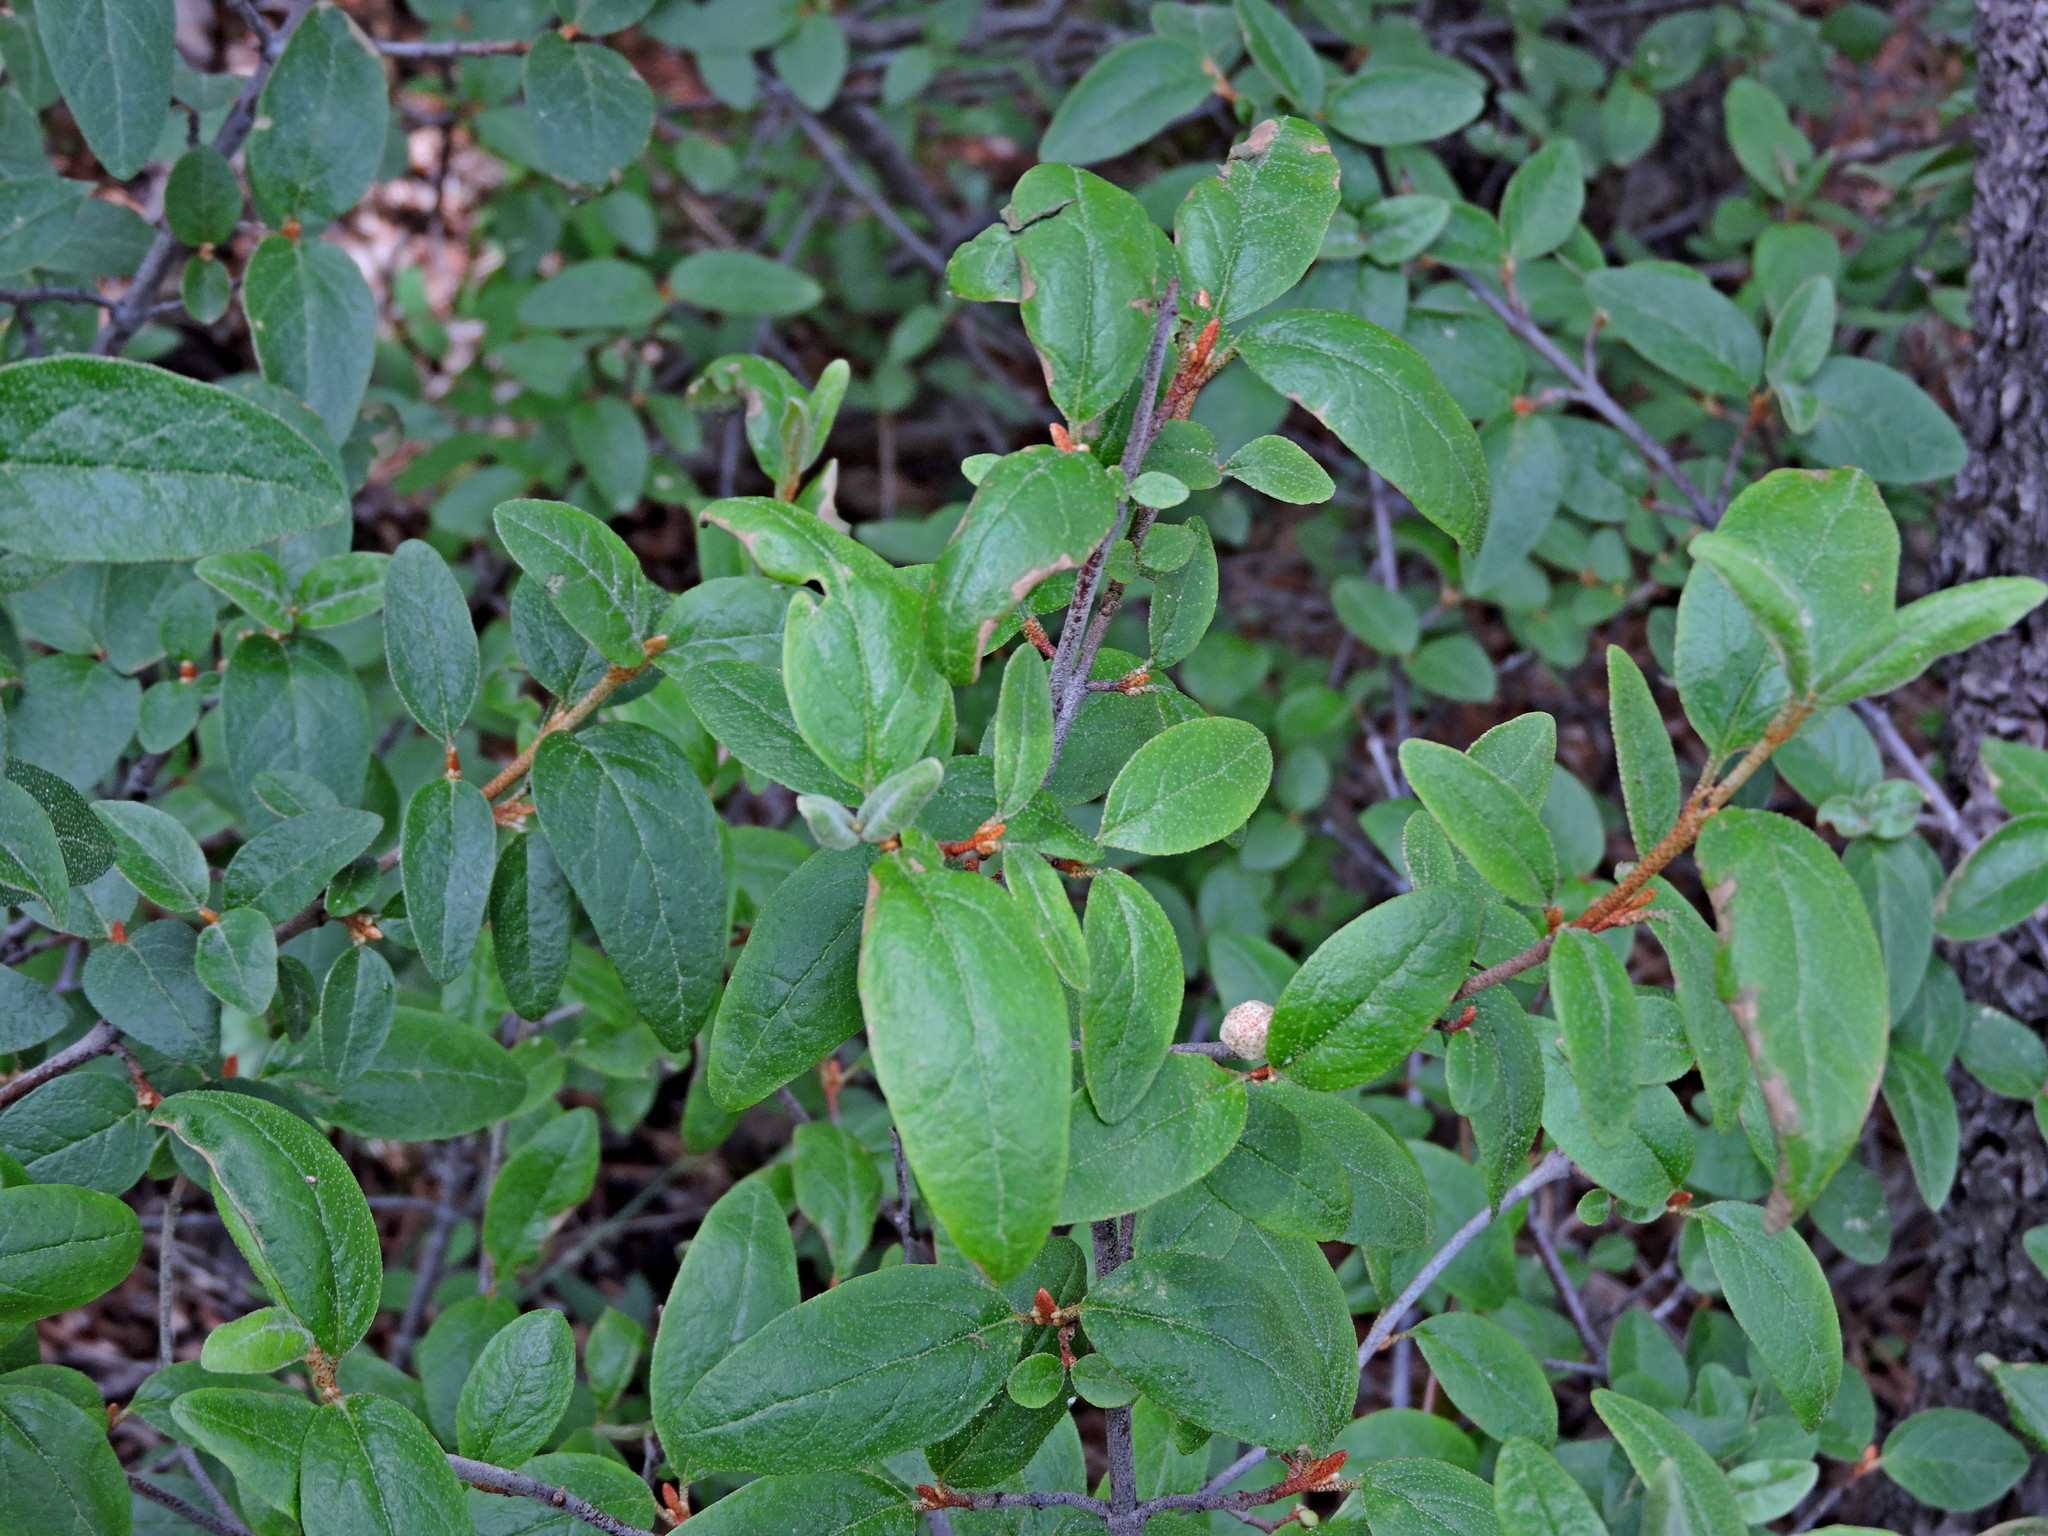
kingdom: Plantae
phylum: Tracheophyta
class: Magnoliopsida
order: Rosales
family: Elaeagnaceae
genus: Shepherdia
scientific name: Shepherdia canadensis
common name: Soapberry
